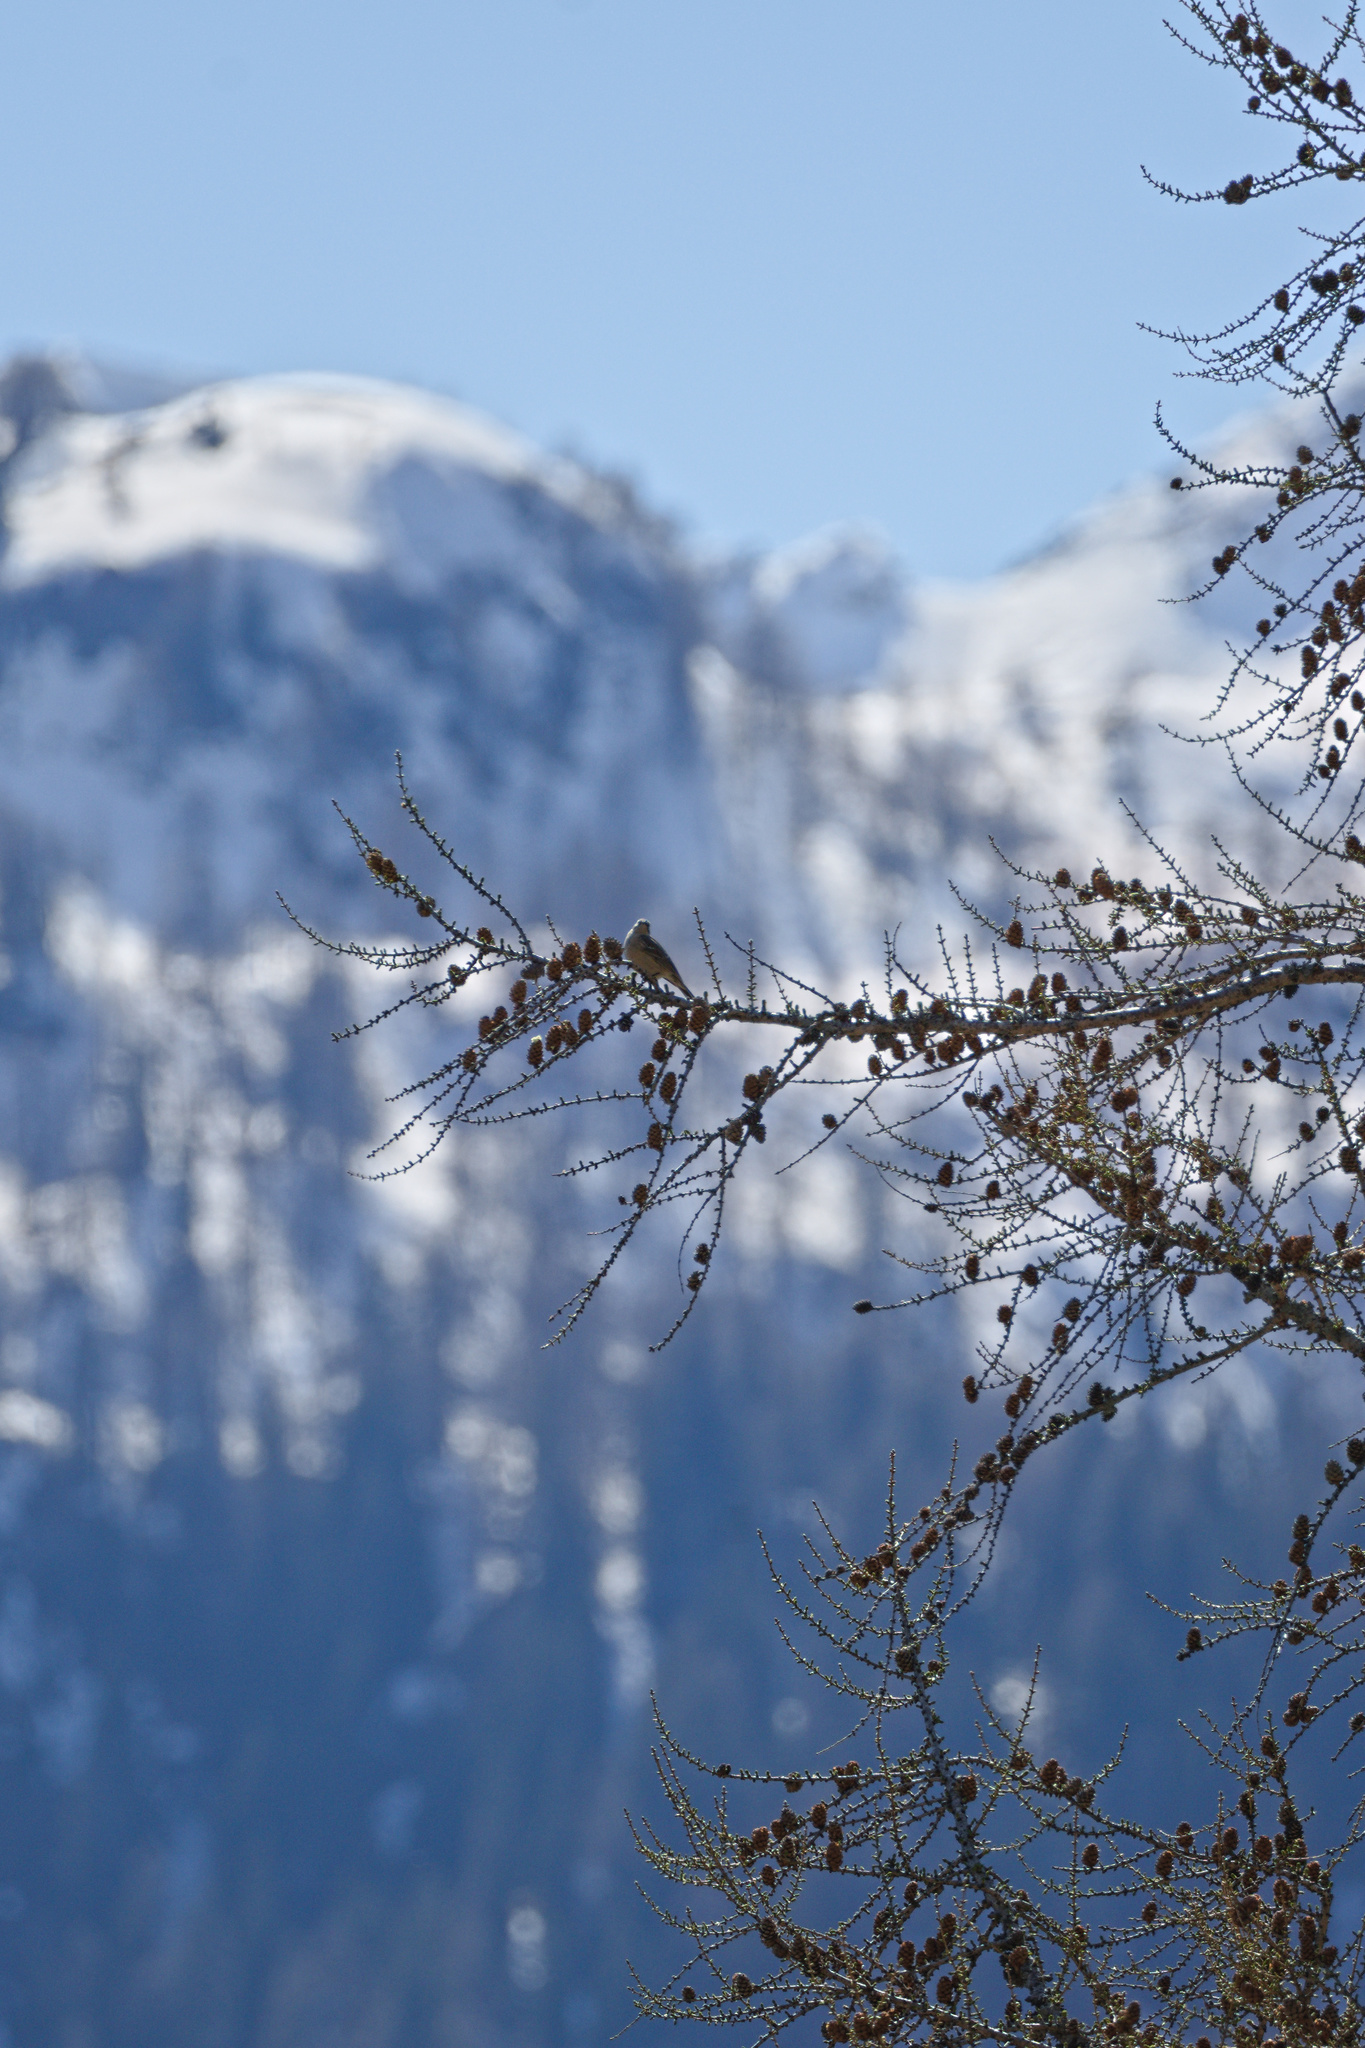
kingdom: Animalia
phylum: Chordata
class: Aves
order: Passeriformes
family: Motacillidae
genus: Anthus
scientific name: Anthus spinoletta
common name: Water pipit
